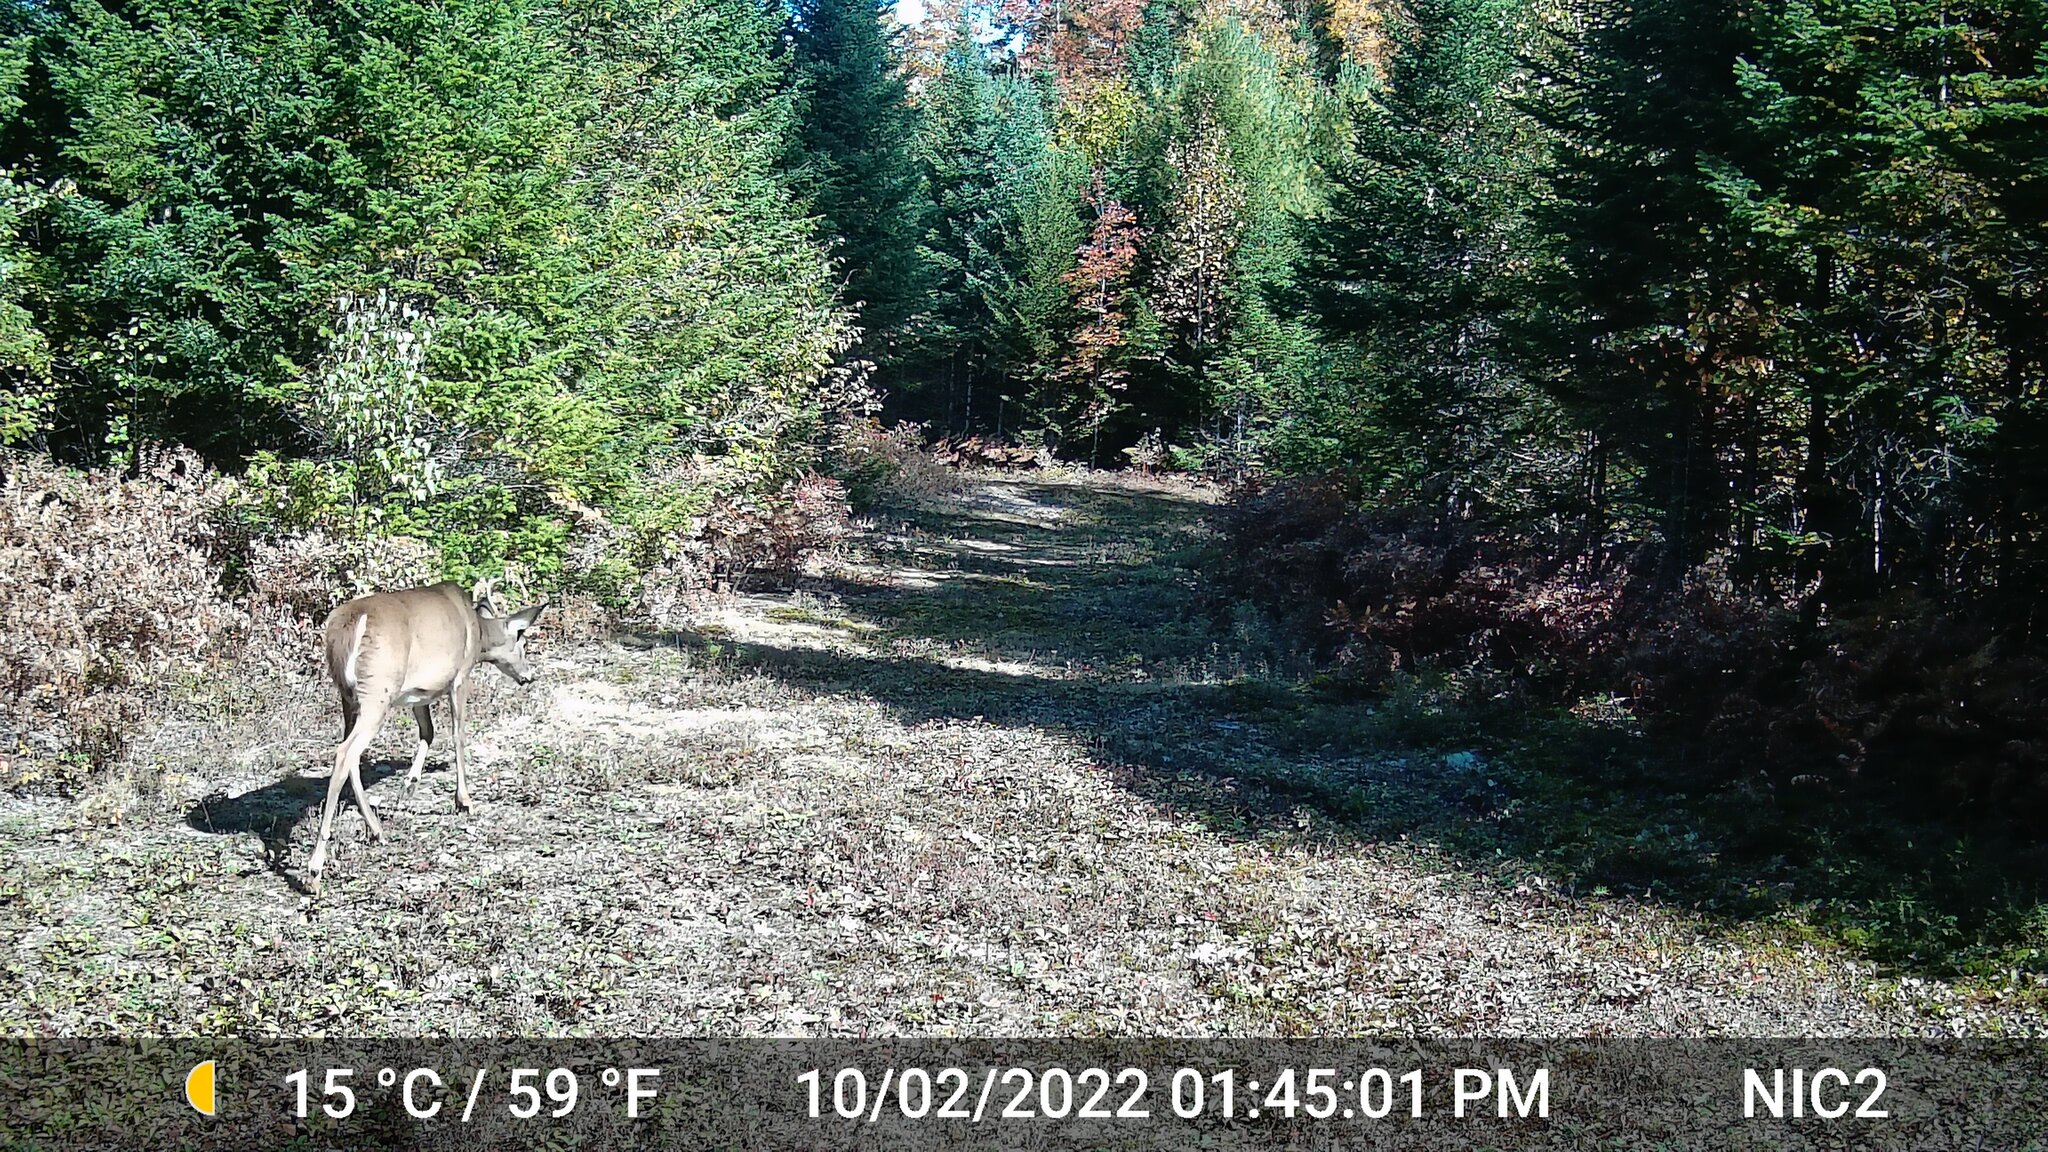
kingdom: Animalia
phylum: Chordata
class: Mammalia
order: Artiodactyla
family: Cervidae
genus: Odocoileus
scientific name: Odocoileus virginianus
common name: White-tailed deer
